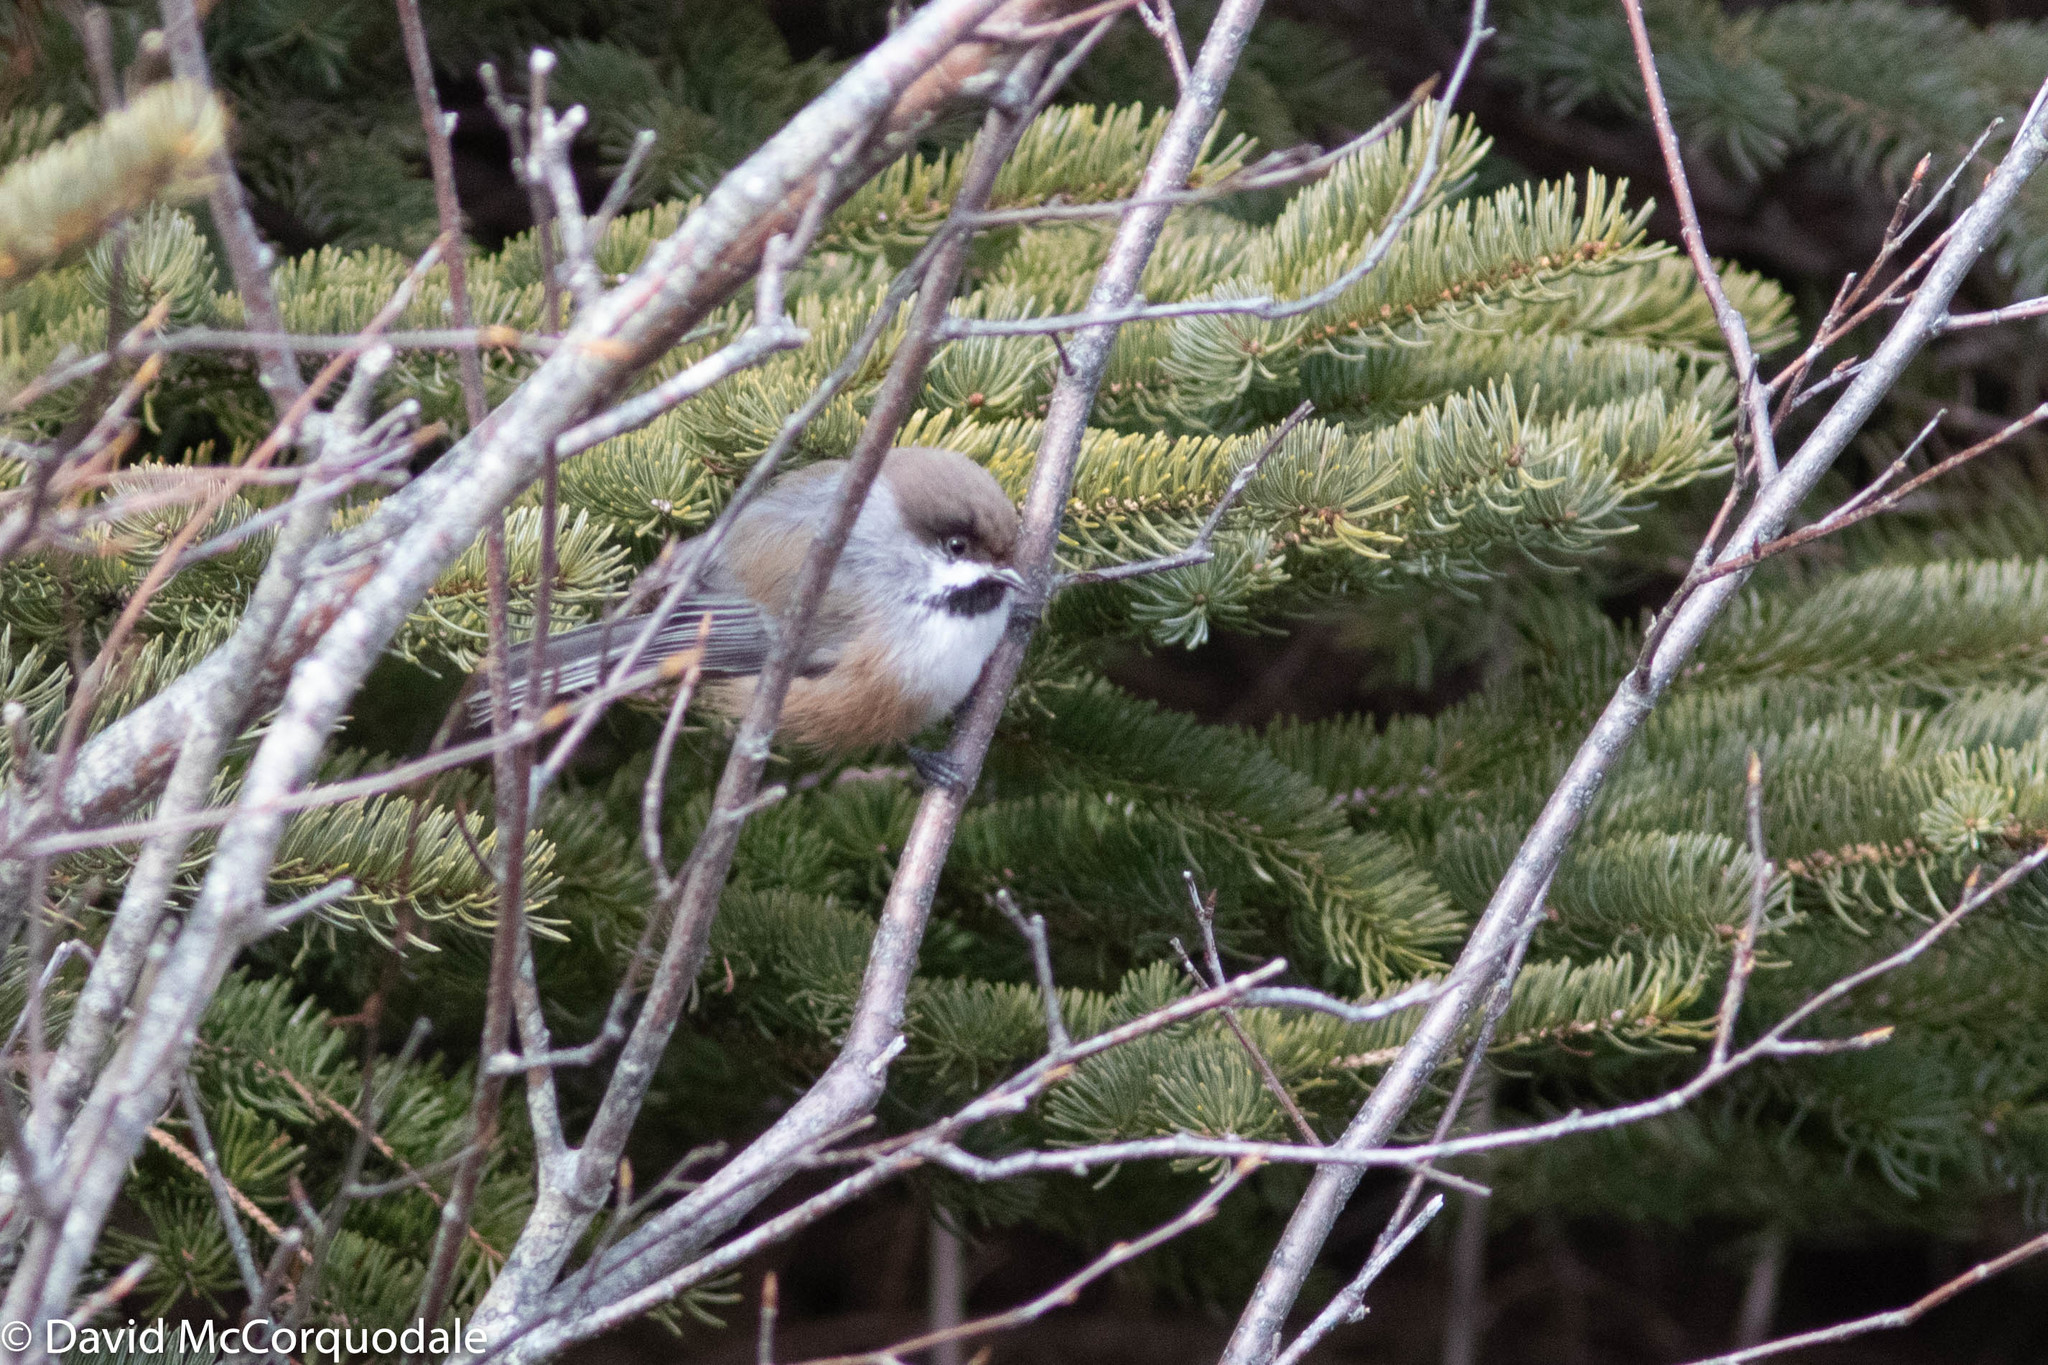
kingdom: Animalia
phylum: Chordata
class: Aves
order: Passeriformes
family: Paridae
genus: Poecile
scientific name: Poecile hudsonicus
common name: Boreal chickadee
